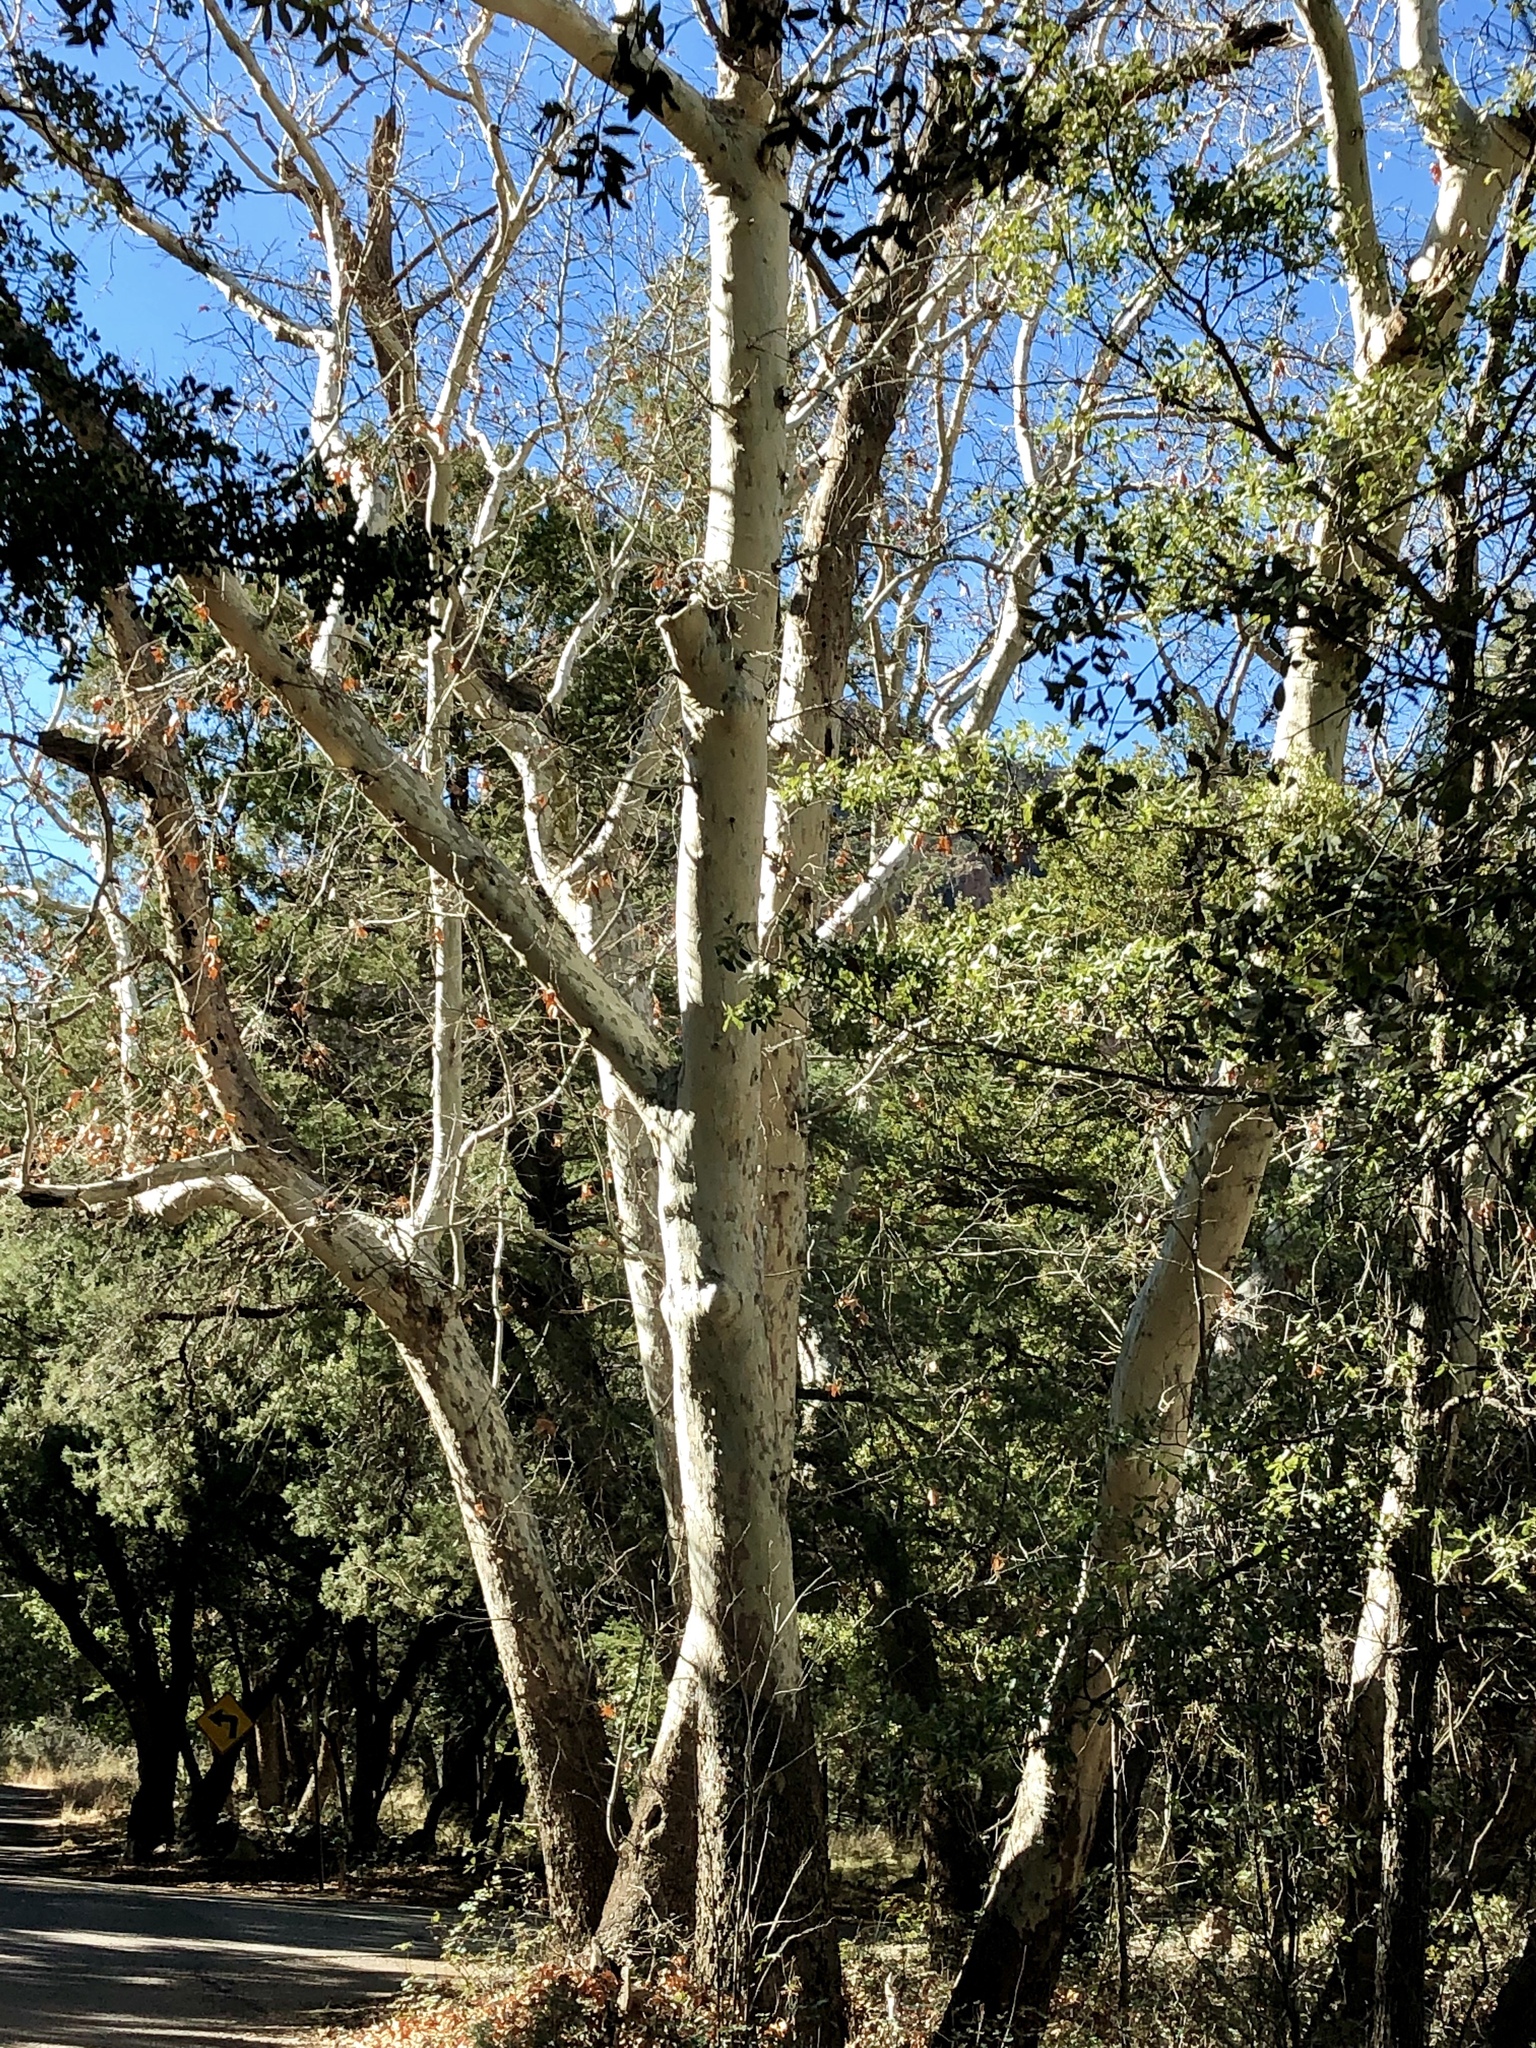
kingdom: Plantae
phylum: Tracheophyta
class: Magnoliopsida
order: Proteales
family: Platanaceae
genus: Platanus
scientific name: Platanus wrightii
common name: Arizona sycamore
